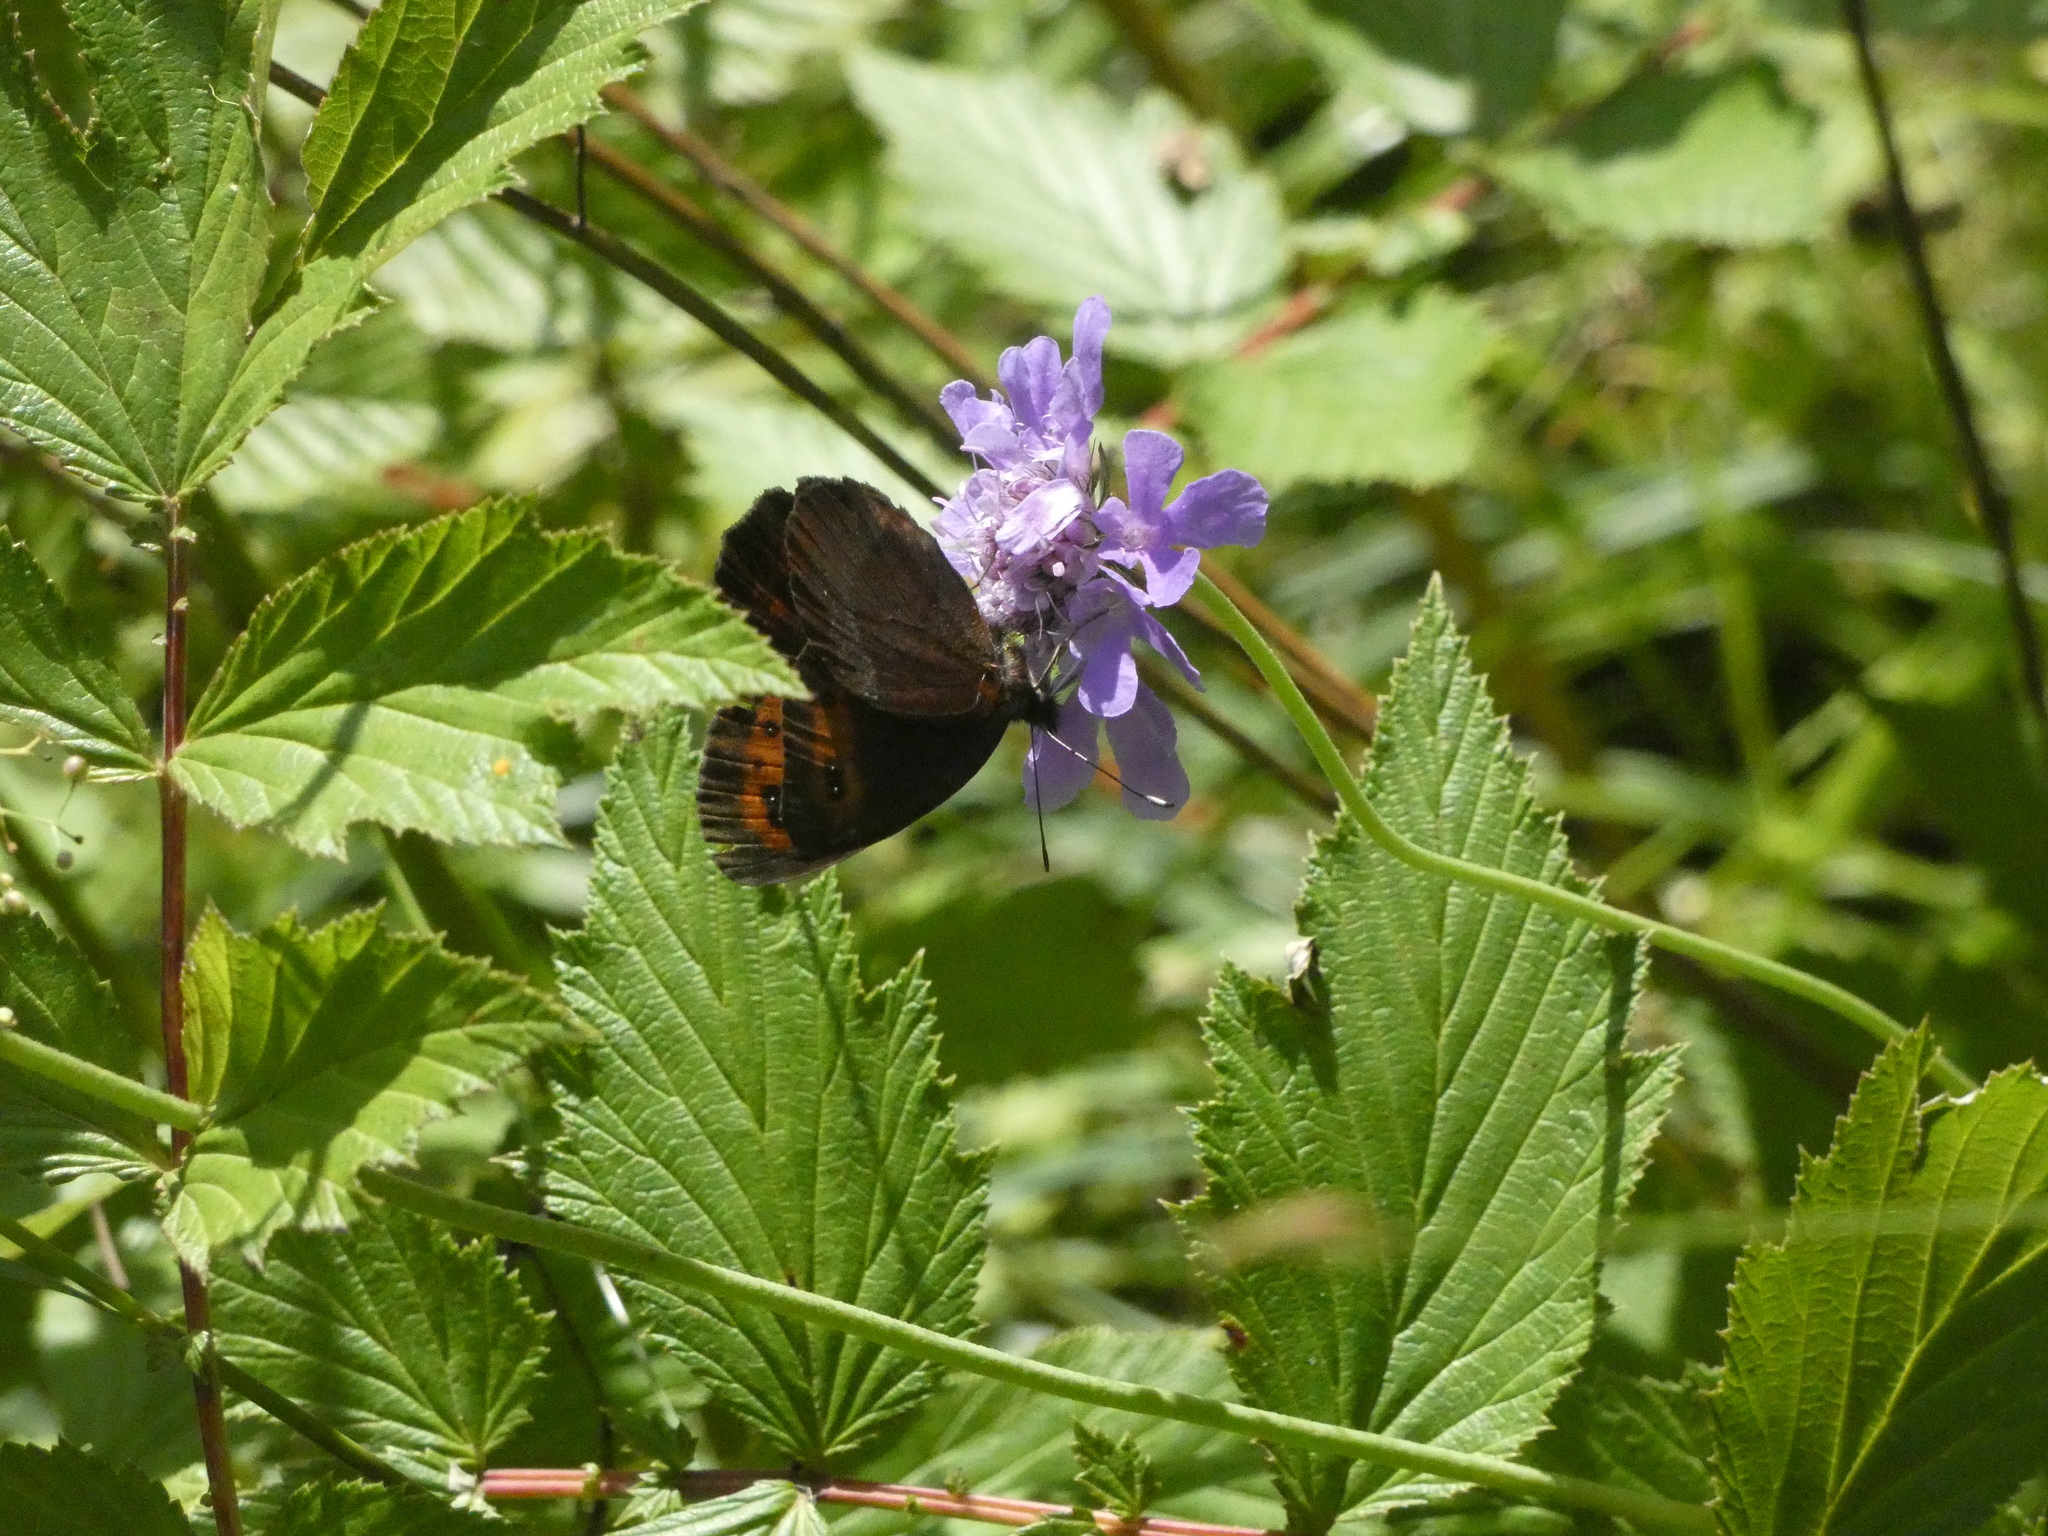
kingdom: Animalia
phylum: Arthropoda
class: Insecta
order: Lepidoptera
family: Nymphalidae
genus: Erebia
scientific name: Erebia aethiops
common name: Scotch argus
